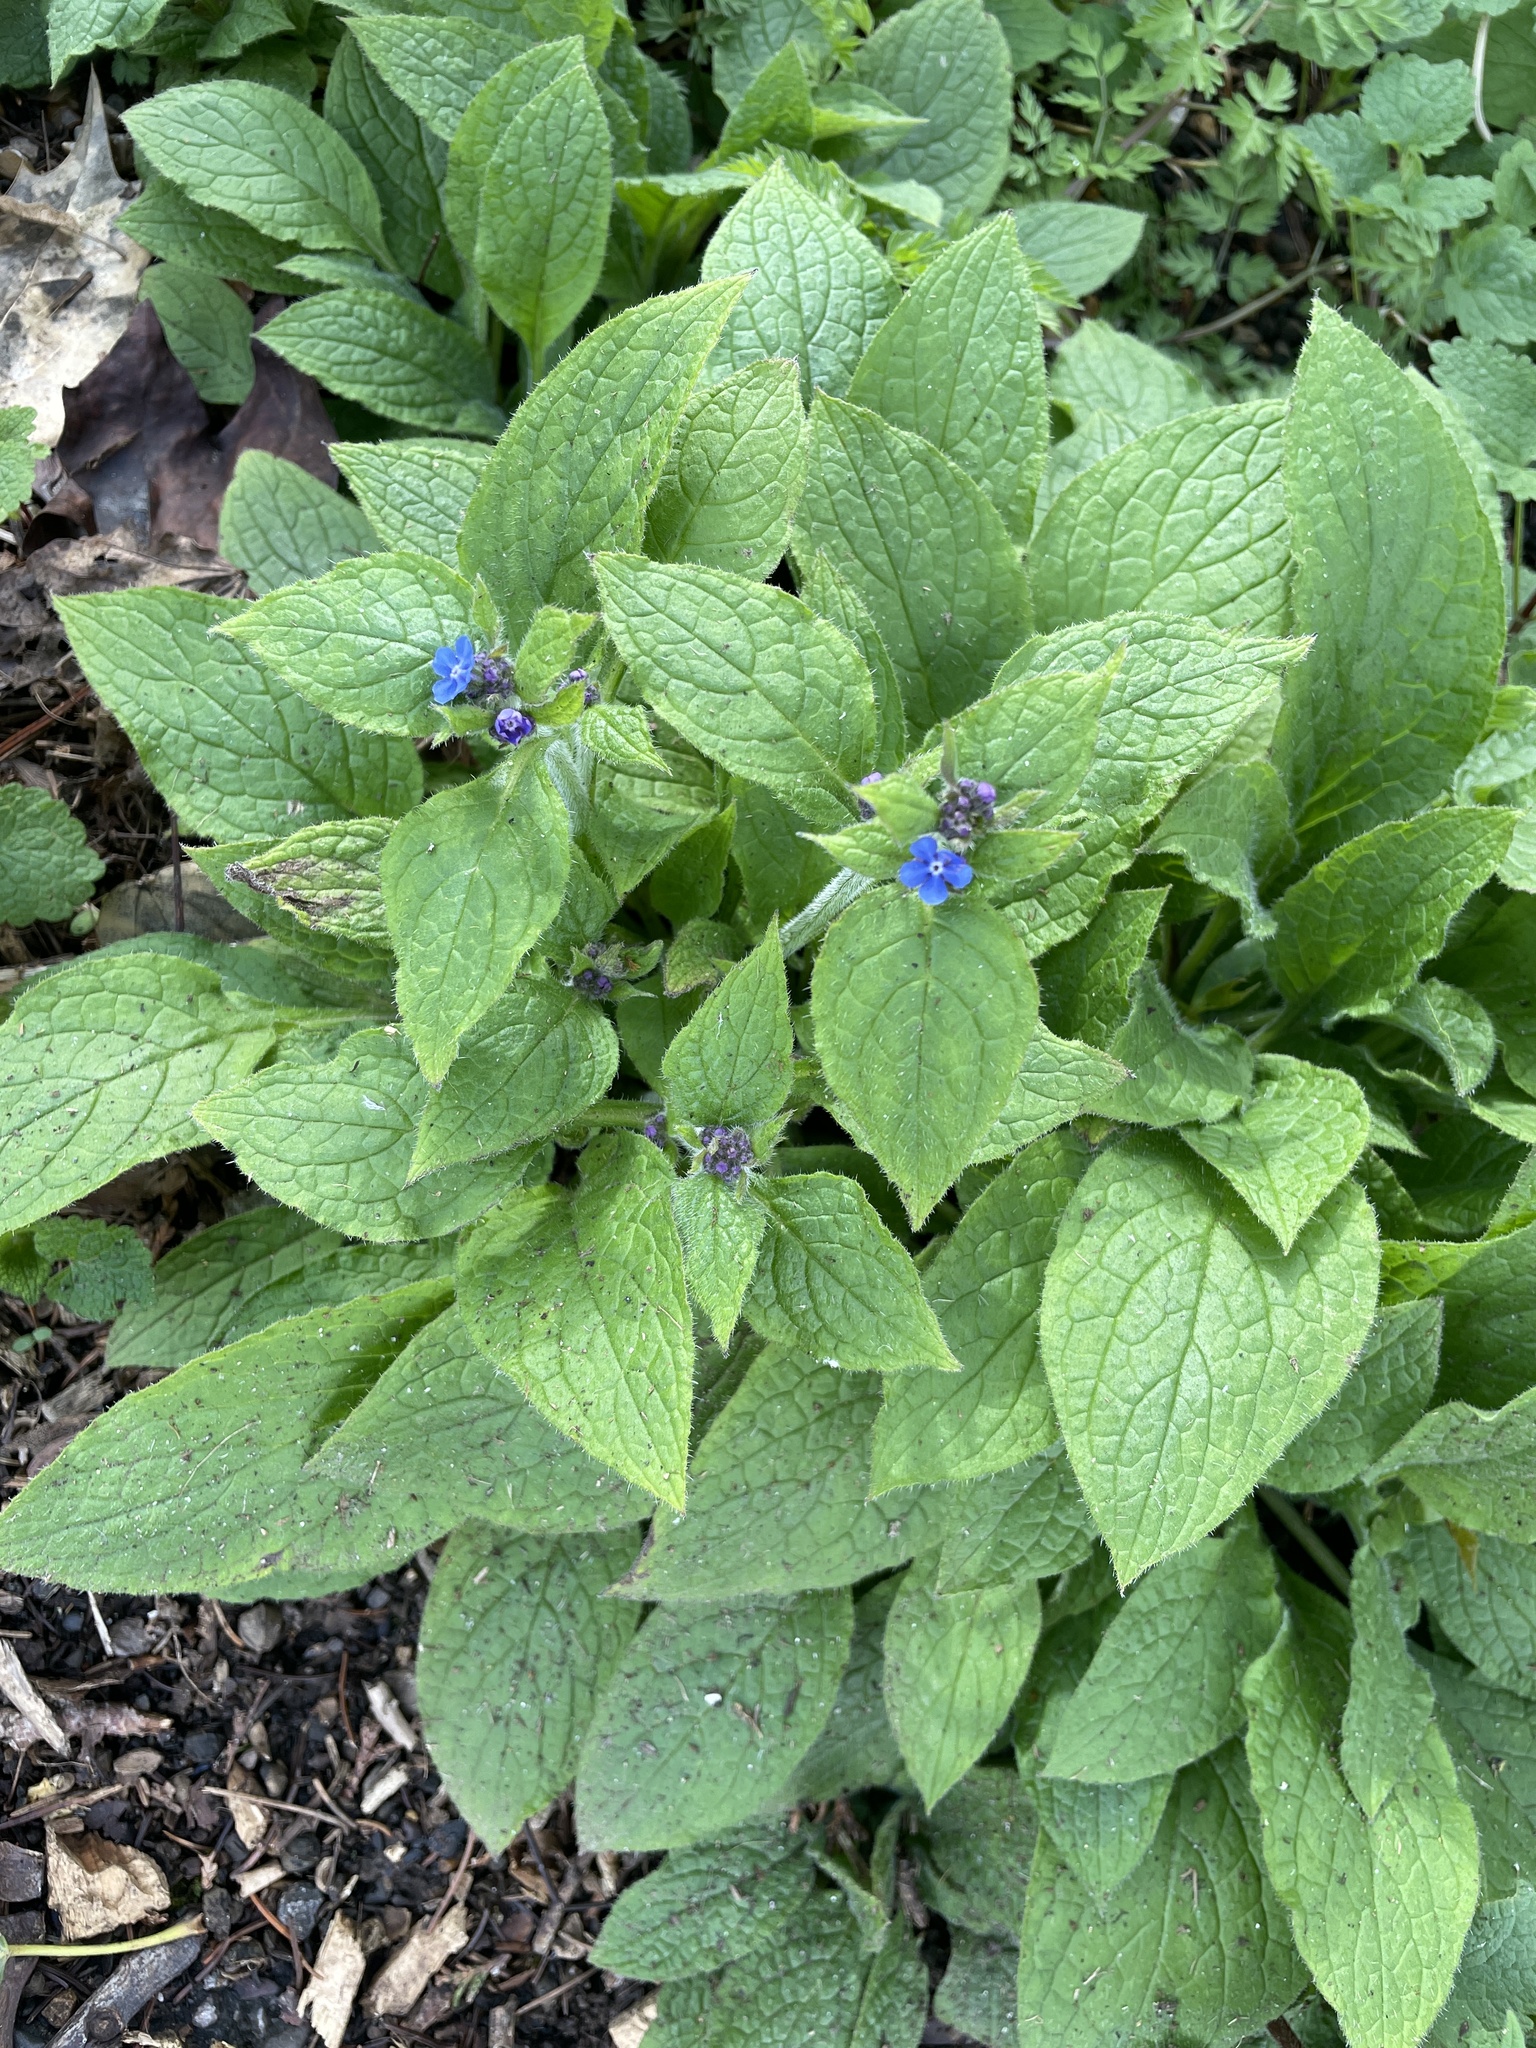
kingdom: Plantae
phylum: Tracheophyta
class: Magnoliopsida
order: Boraginales
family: Boraginaceae
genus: Pentaglottis
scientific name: Pentaglottis sempervirens
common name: Green alkanet
